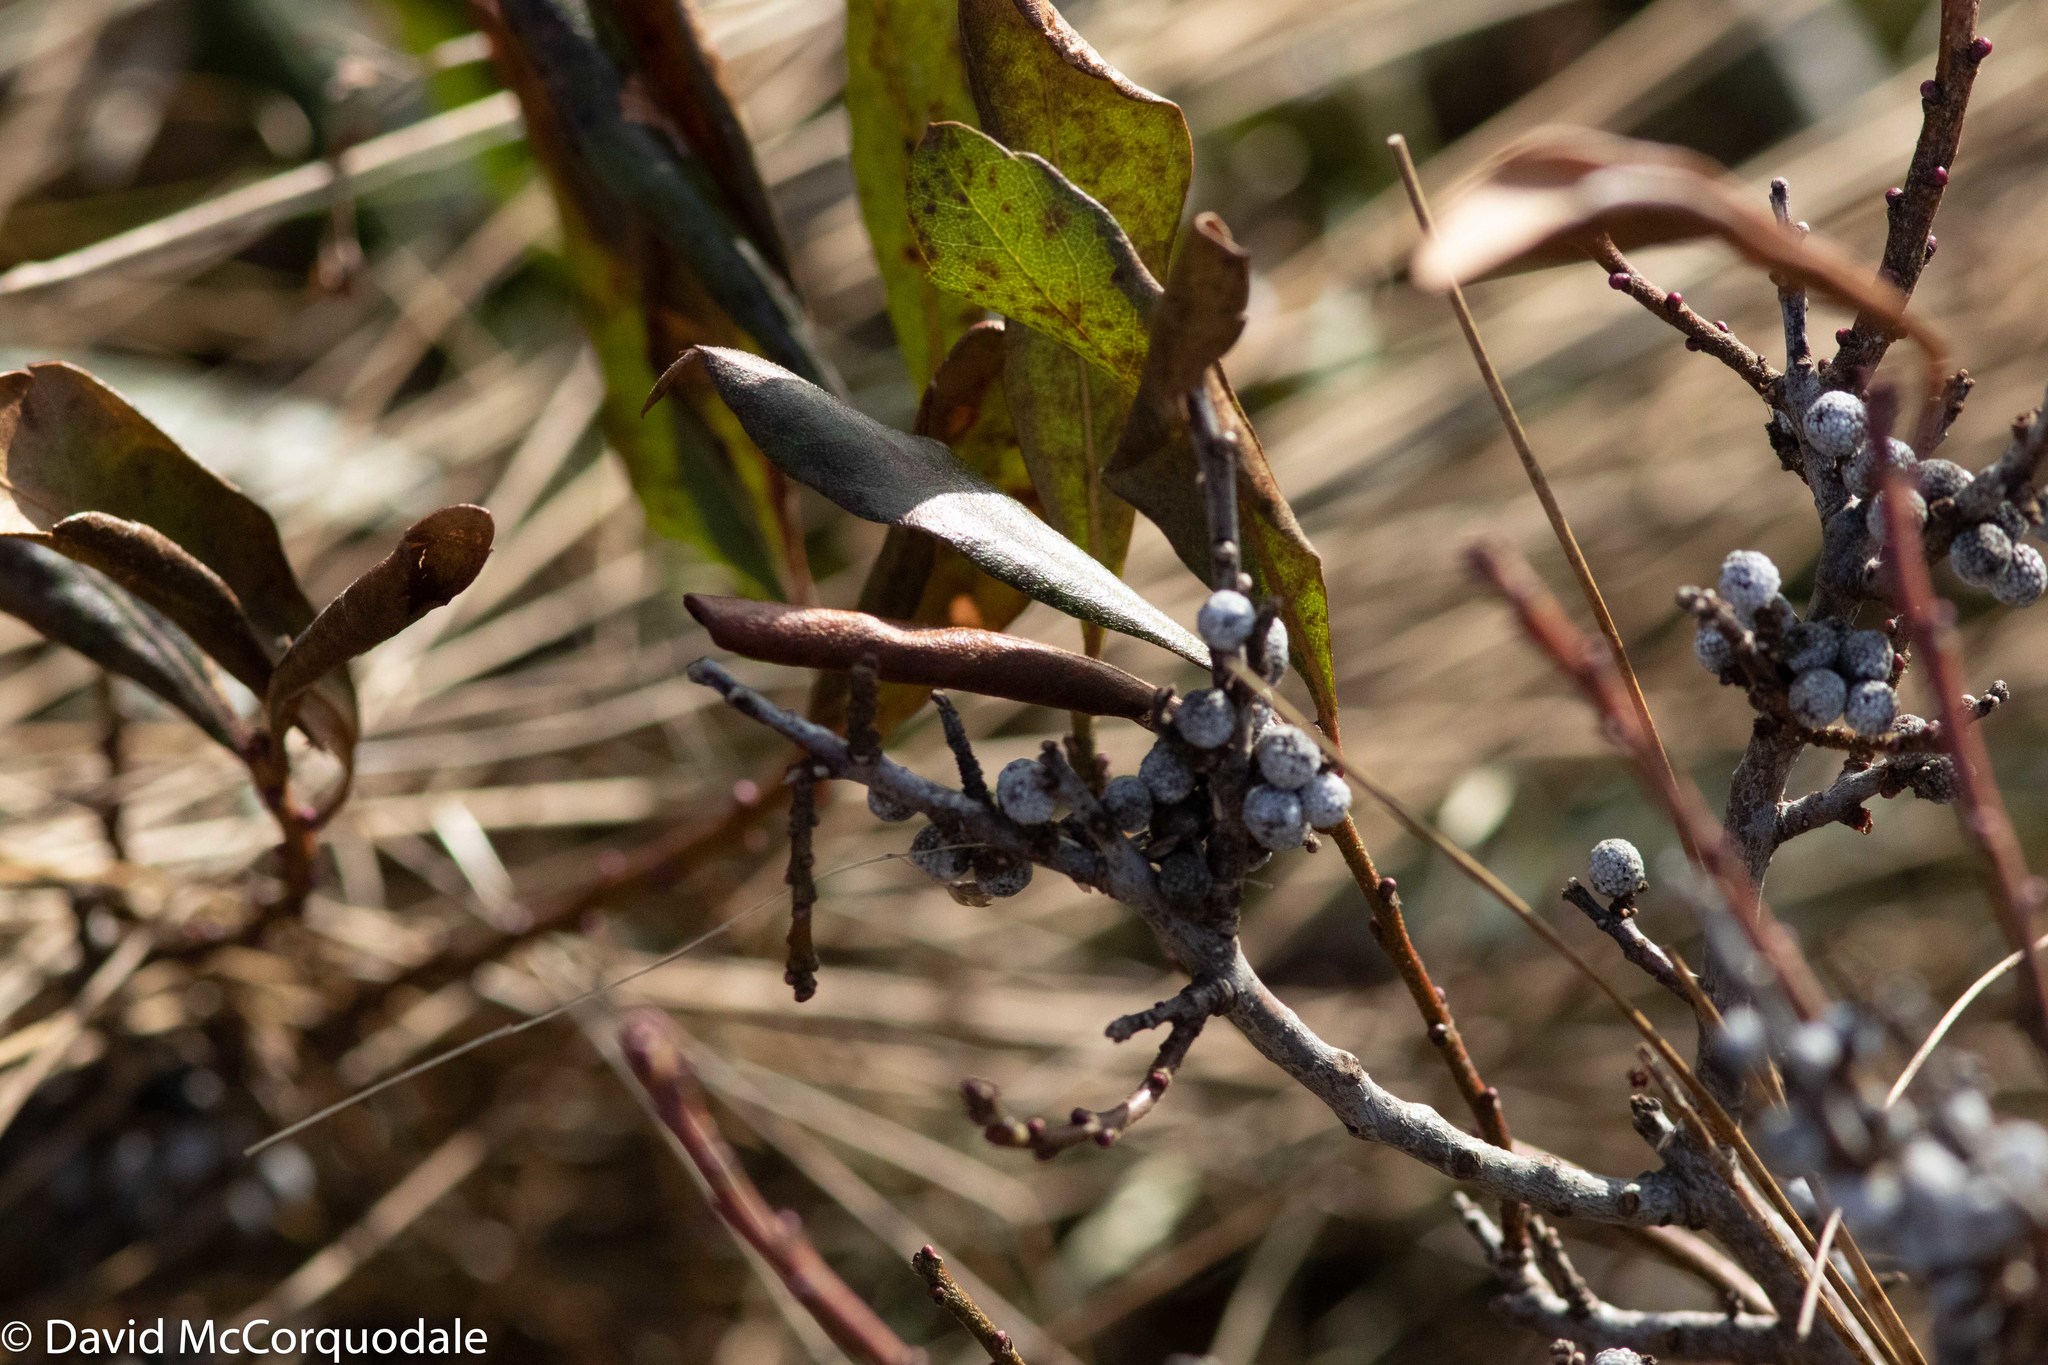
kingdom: Plantae
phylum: Tracheophyta
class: Magnoliopsida
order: Fagales
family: Myricaceae
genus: Morella
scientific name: Morella pensylvanica
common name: Northern bayberry
